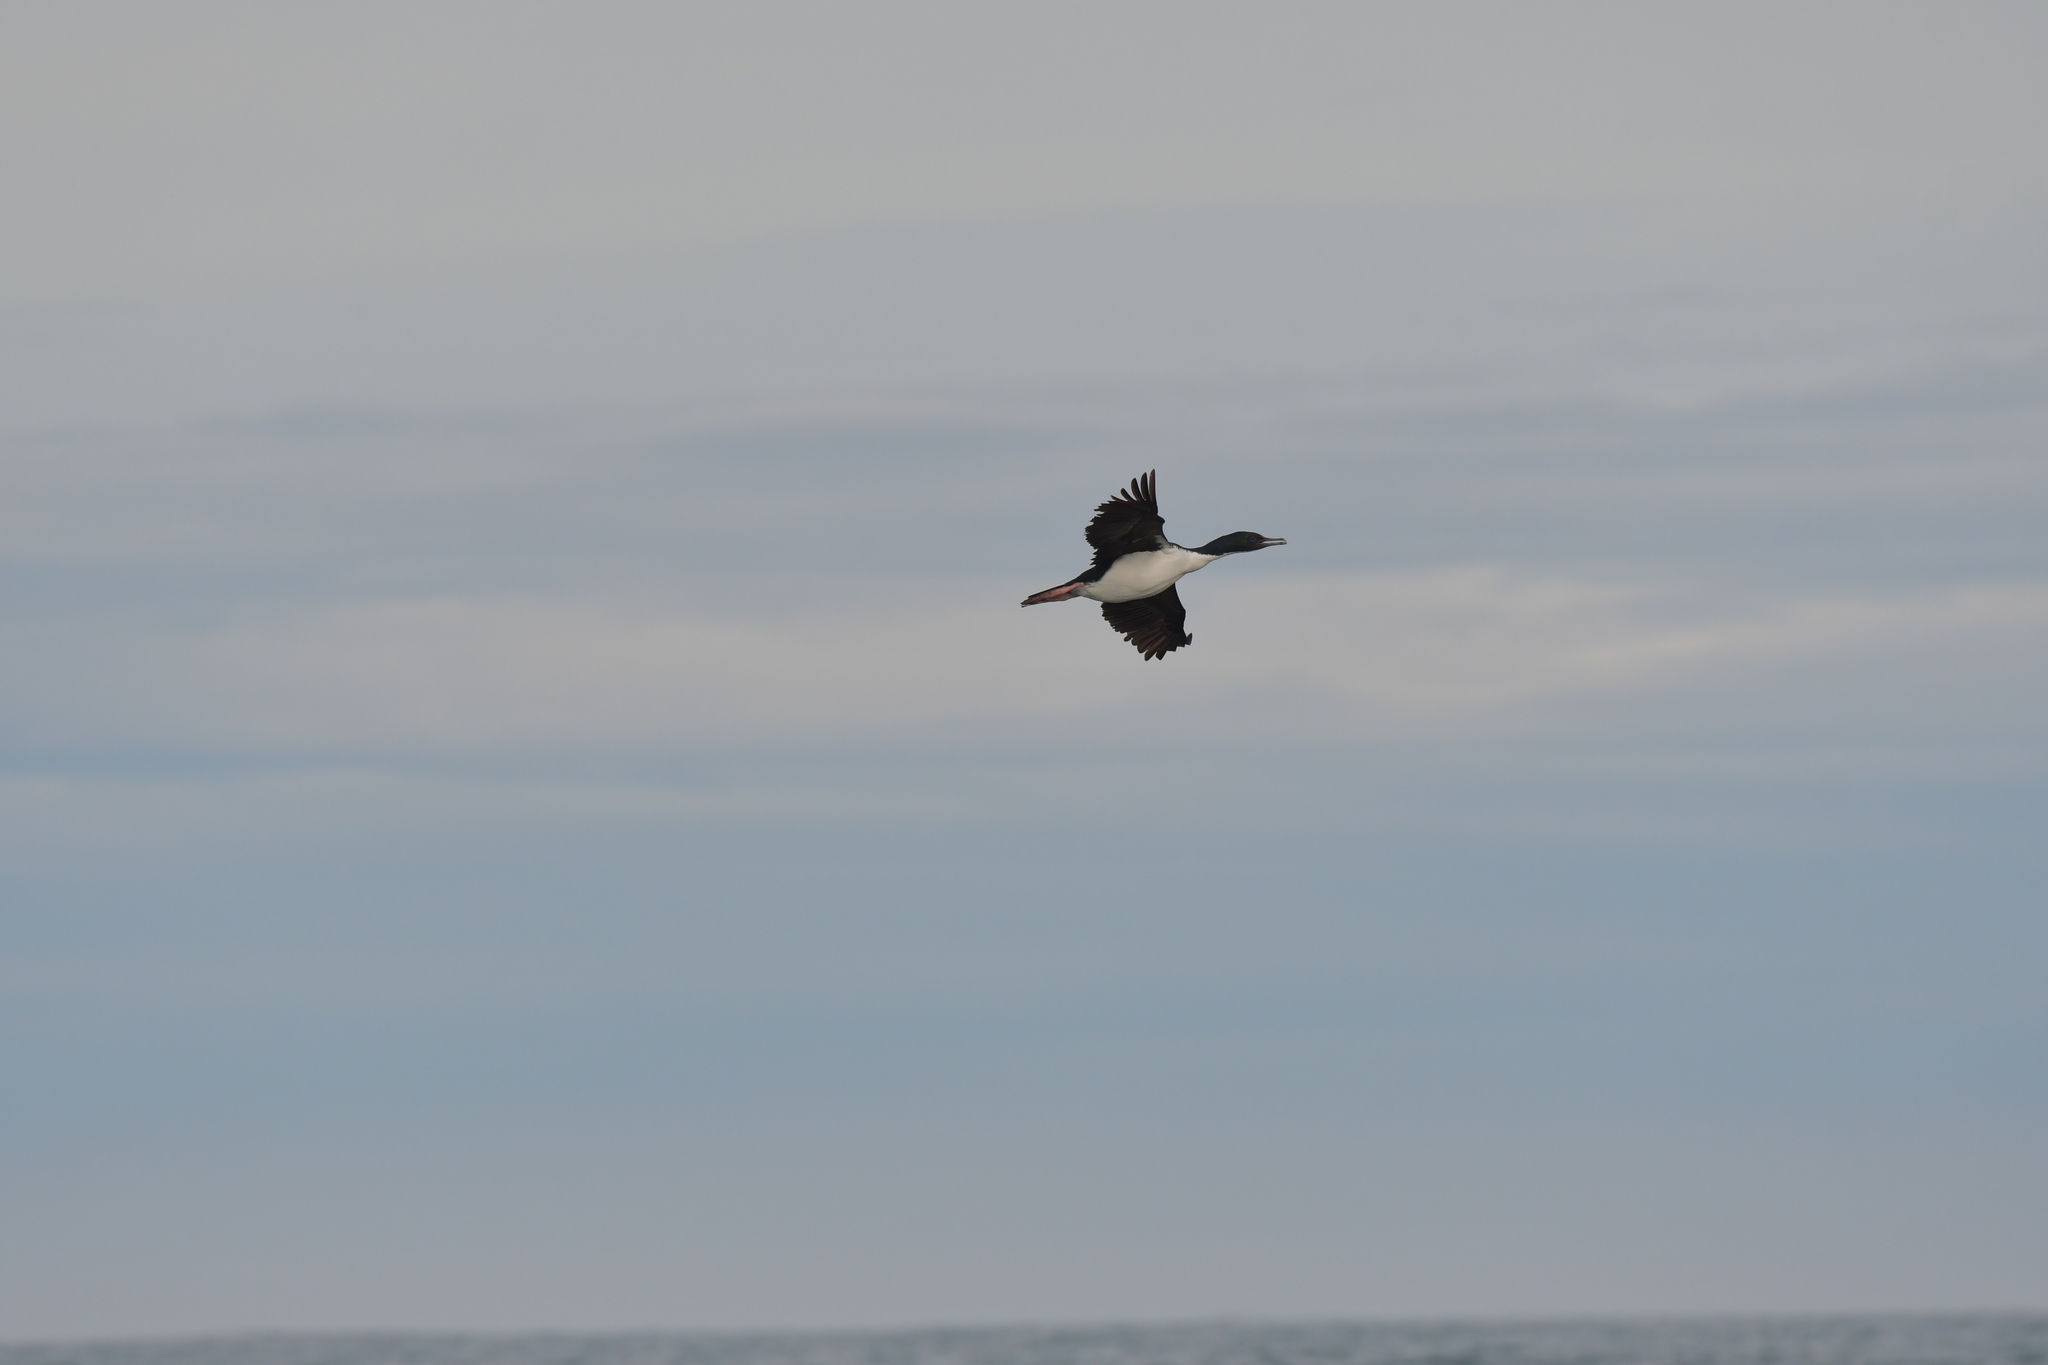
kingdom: Animalia
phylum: Chordata
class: Aves
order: Suliformes
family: Phalacrocoracidae
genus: Leucocarbo
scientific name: Leucocarbo chalconotus
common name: Stewart shag
